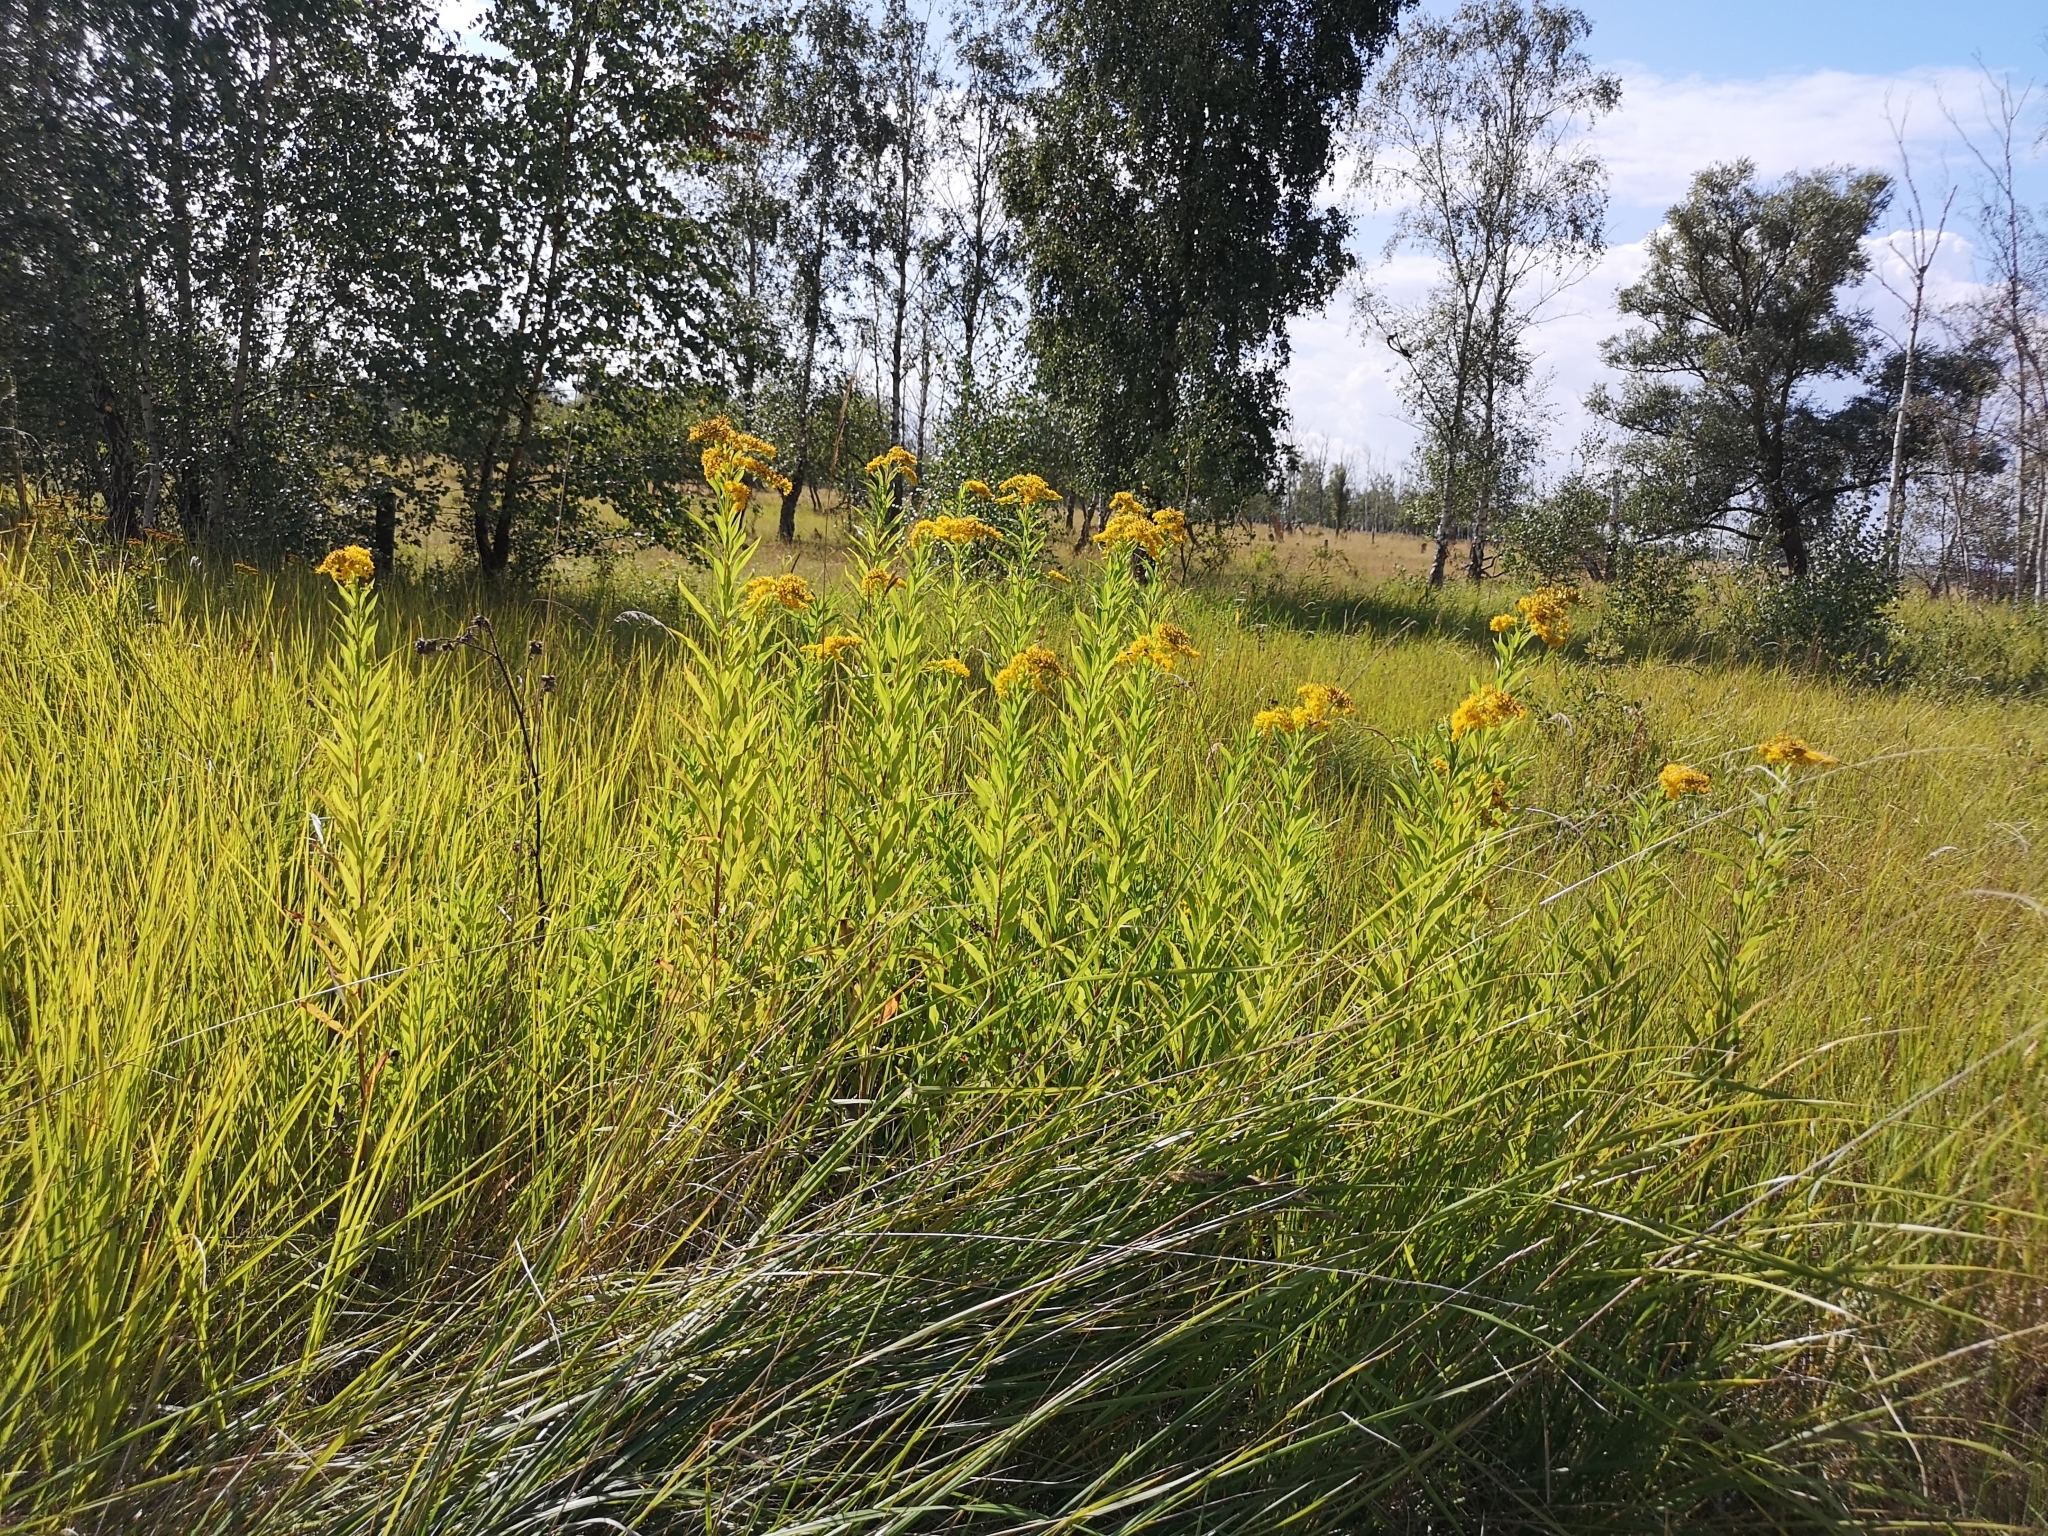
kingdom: Plantae
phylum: Tracheophyta
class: Magnoliopsida
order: Asterales
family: Asteraceae
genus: Solidago
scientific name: Solidago gigantea
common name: Giant goldenrod
